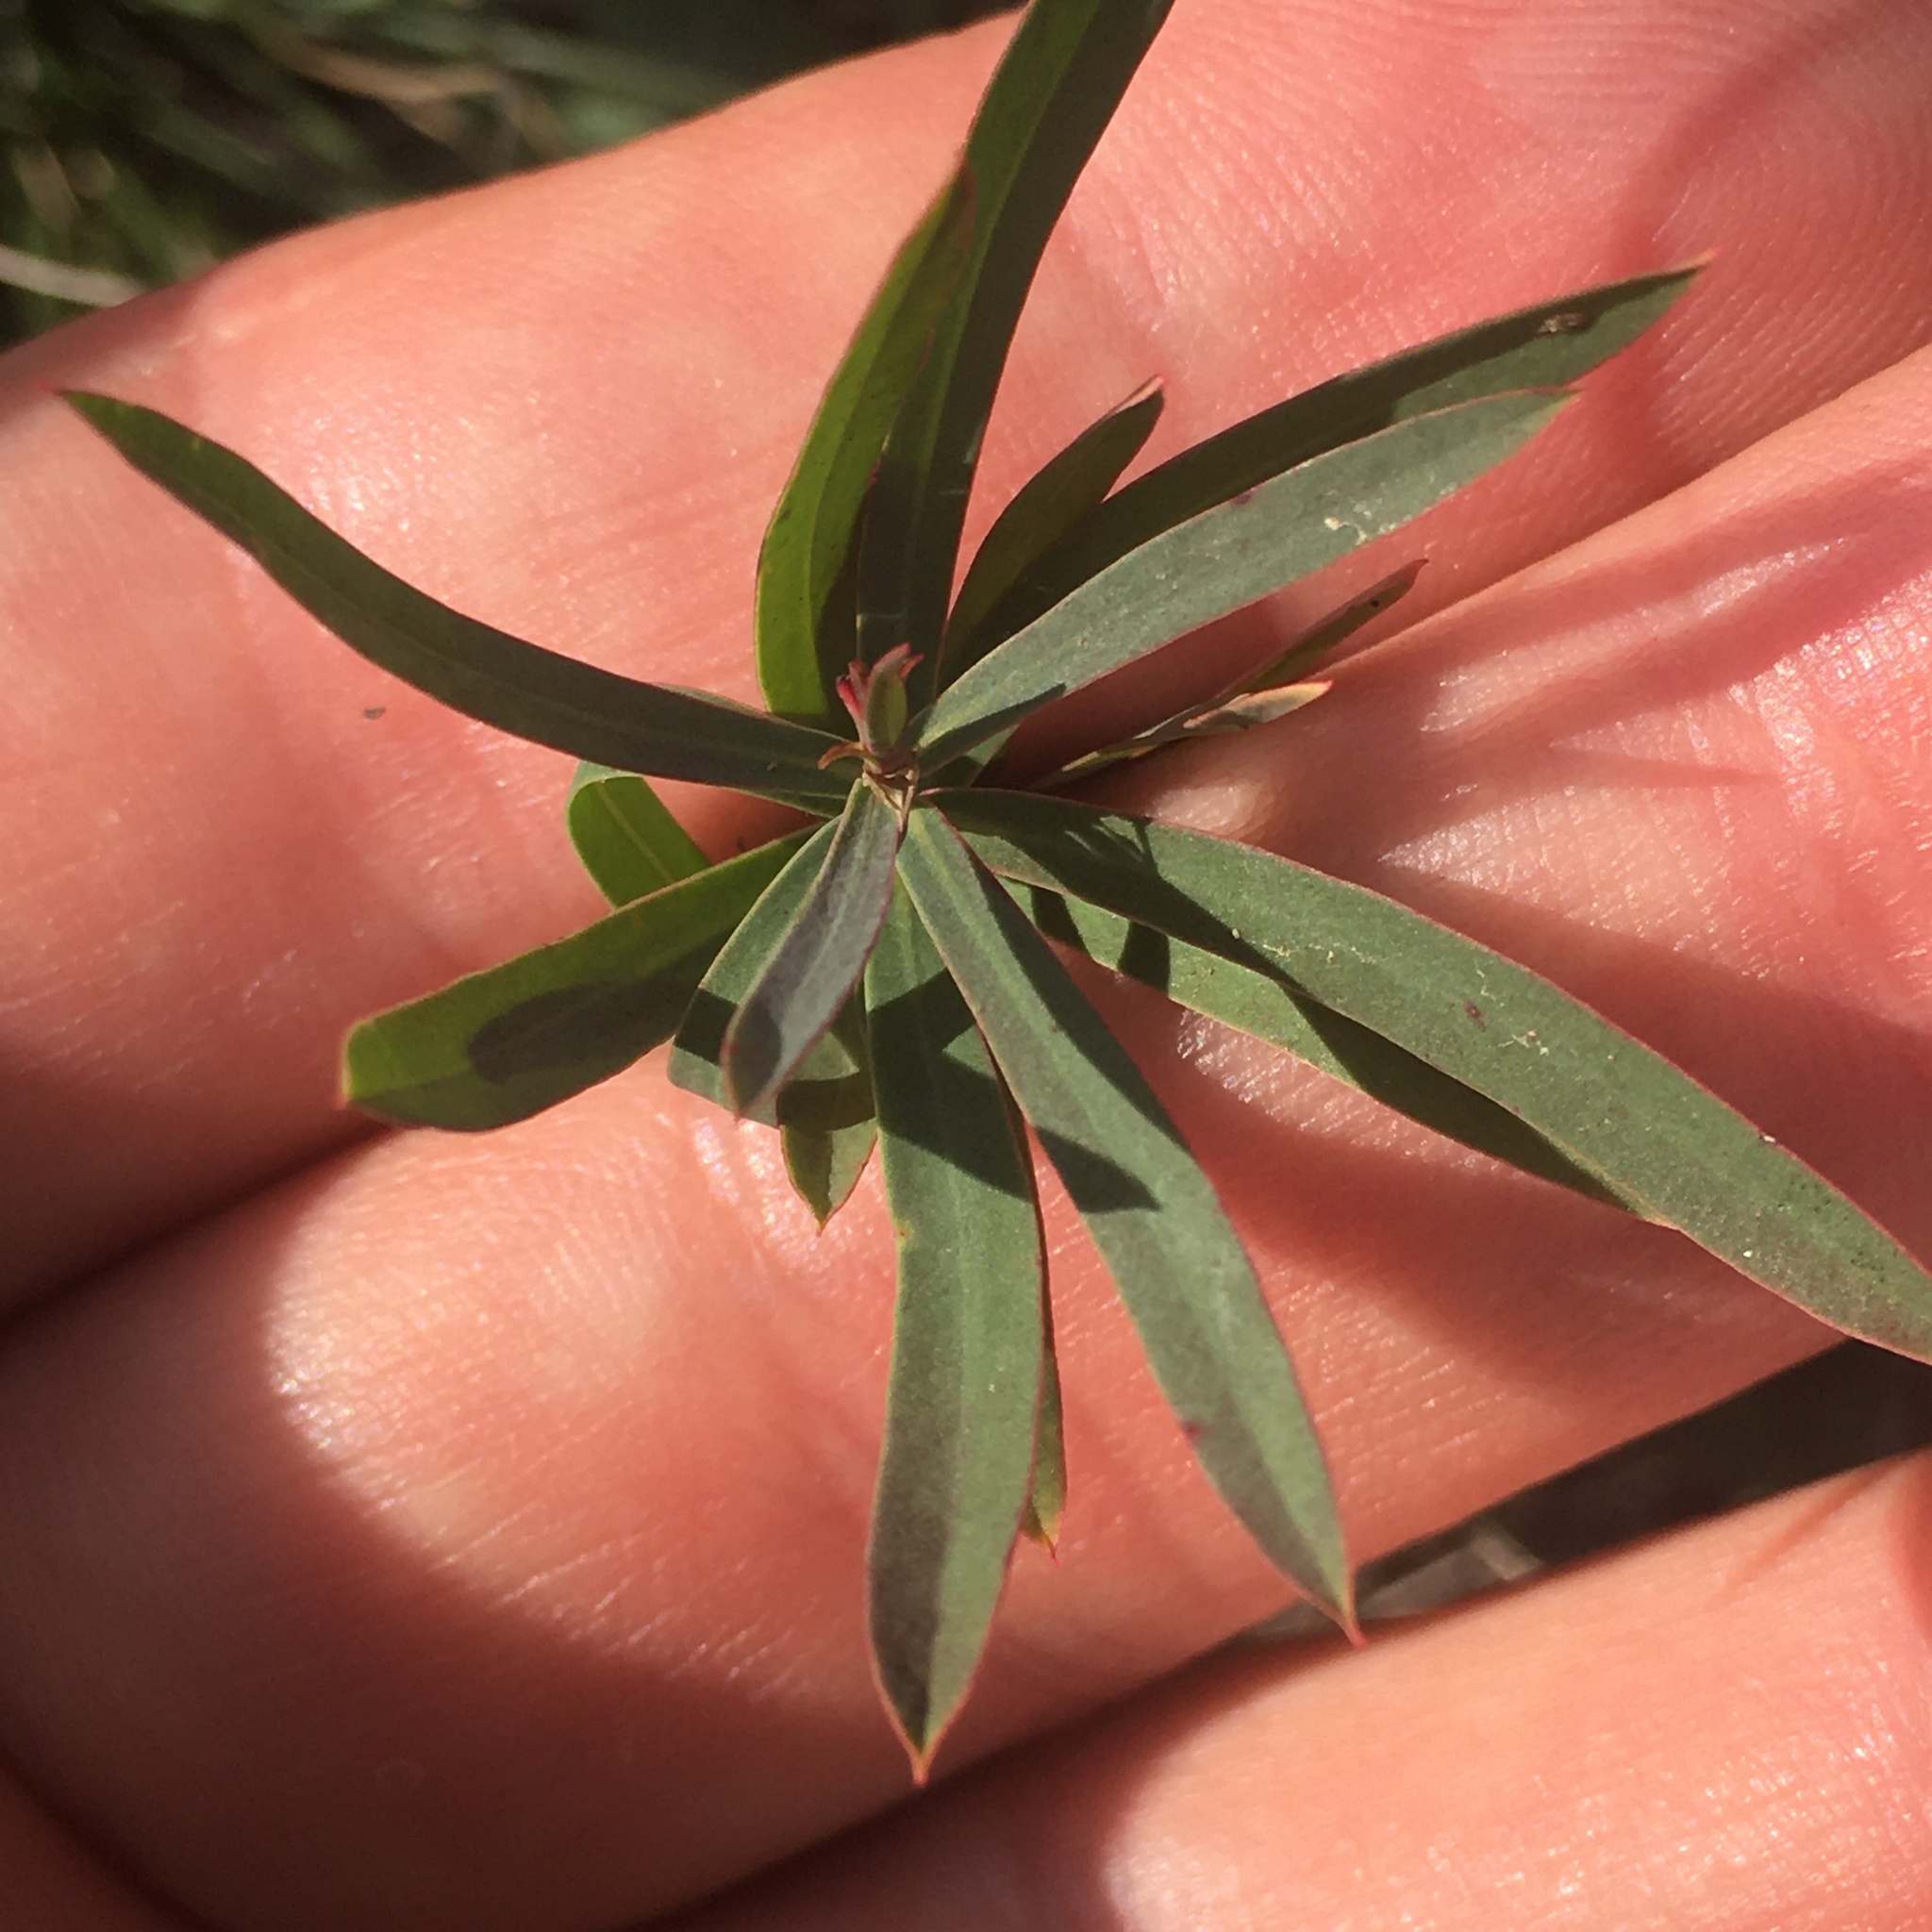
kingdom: Plantae
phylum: Tracheophyta
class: Magnoliopsida
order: Malpighiales
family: Euphorbiaceae
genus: Euphorbia
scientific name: Euphorbia virgata
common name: Leafy spurge
